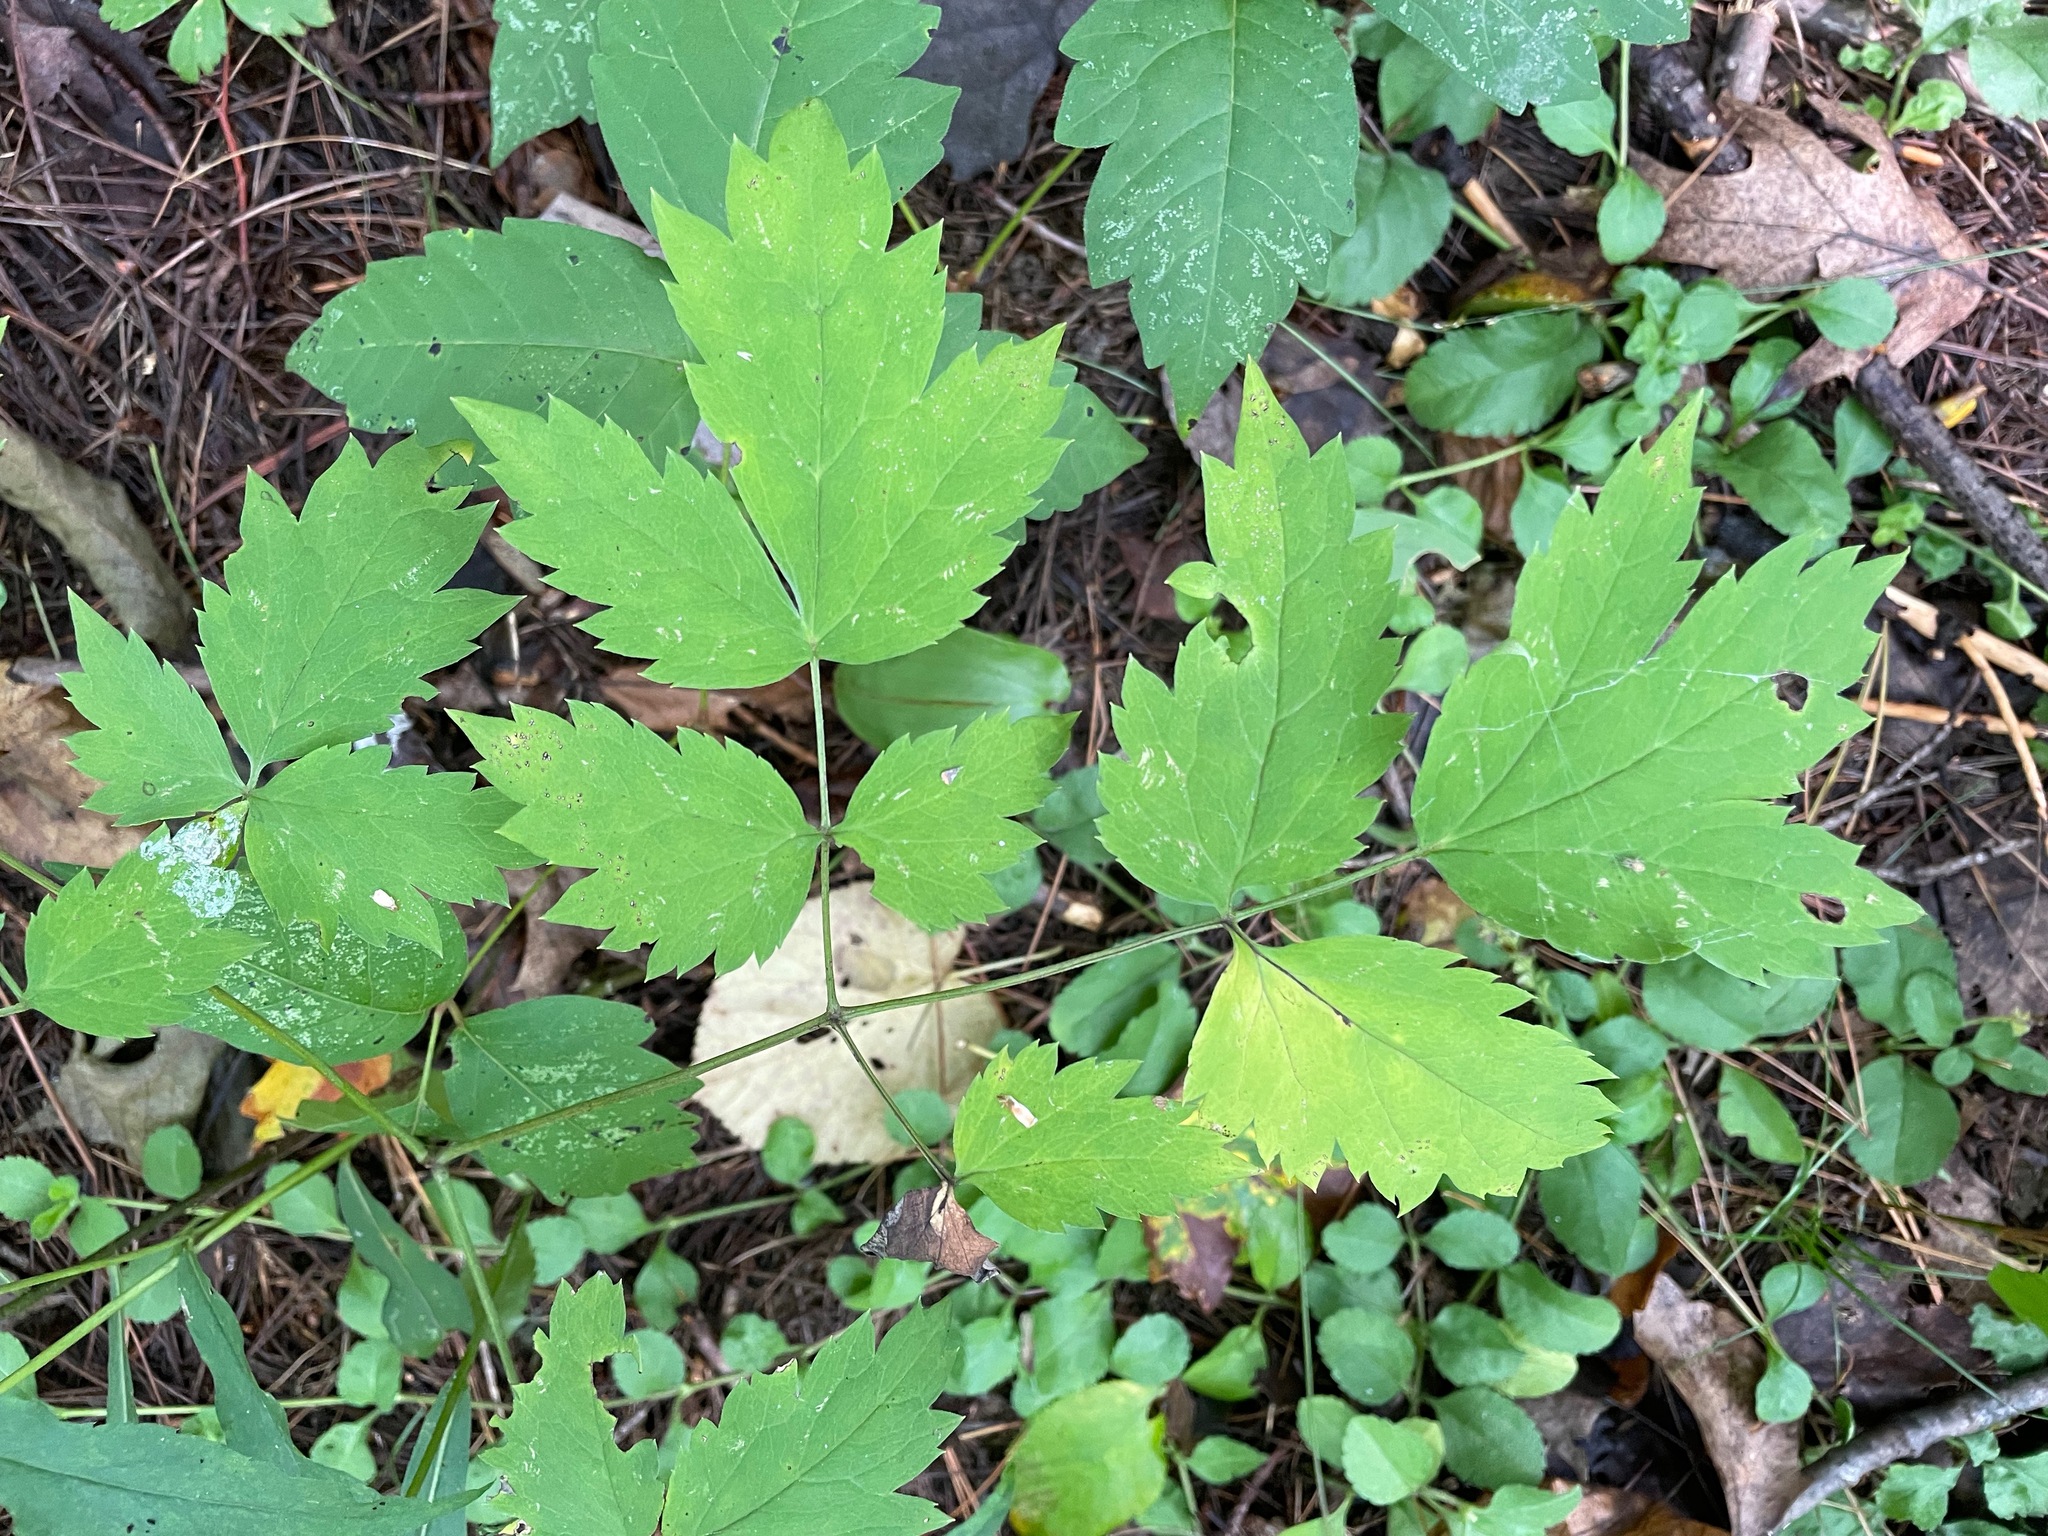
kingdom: Plantae
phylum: Tracheophyta
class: Magnoliopsida
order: Ranunculales
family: Ranunculaceae
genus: Actaea
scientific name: Actaea pachypoda
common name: Doll's-eyes
